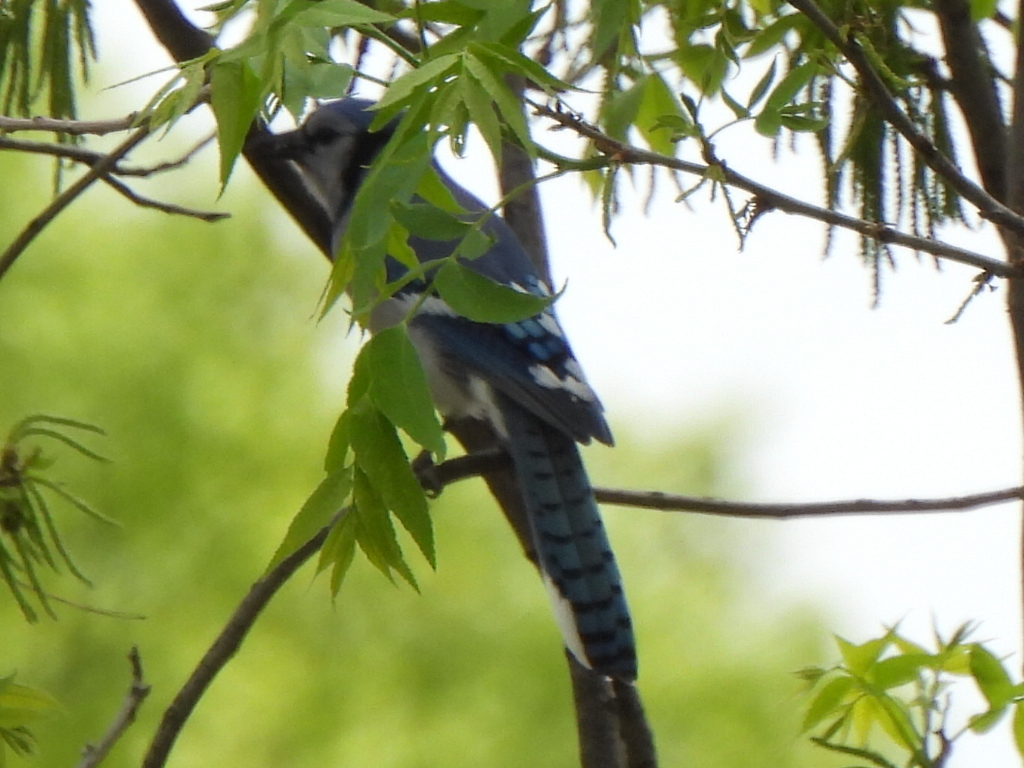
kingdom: Animalia
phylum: Chordata
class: Aves
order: Passeriformes
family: Corvidae
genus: Cyanocitta
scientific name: Cyanocitta cristata
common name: Blue jay
